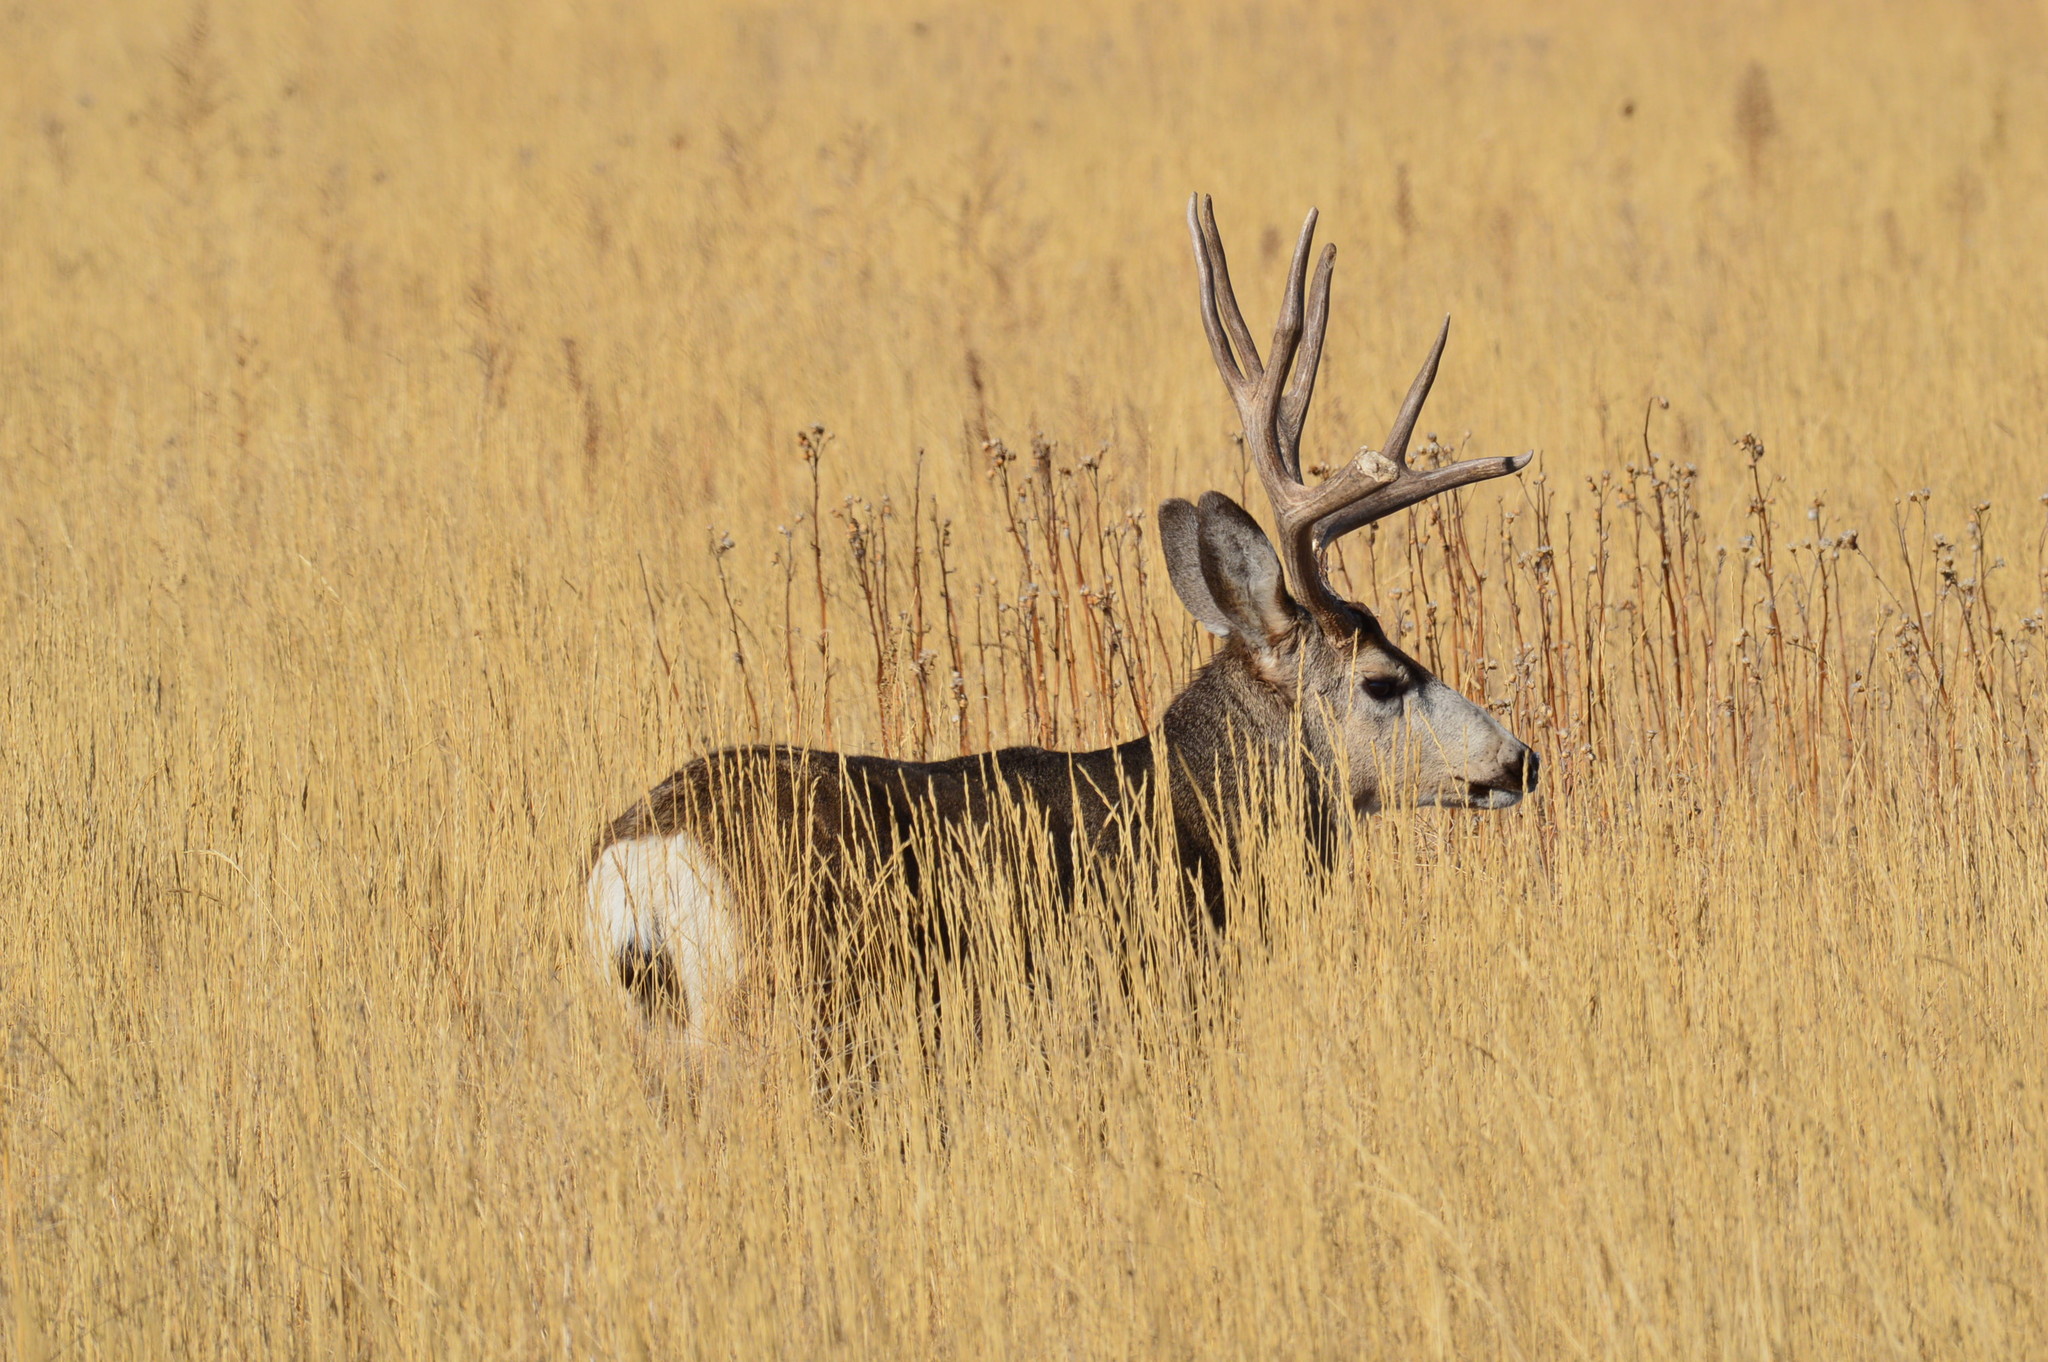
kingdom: Animalia
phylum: Chordata
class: Mammalia
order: Artiodactyla
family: Cervidae
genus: Odocoileus
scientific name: Odocoileus hemionus
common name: Mule deer
